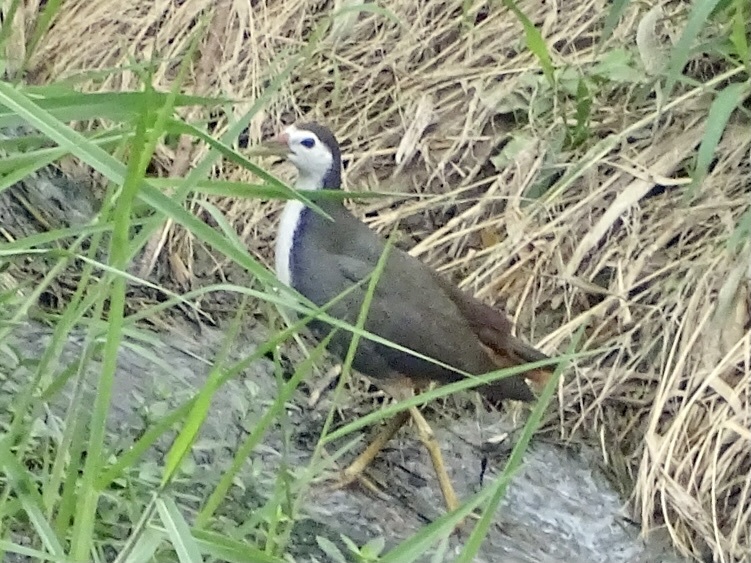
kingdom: Animalia
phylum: Chordata
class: Aves
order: Gruiformes
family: Rallidae
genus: Amaurornis
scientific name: Amaurornis phoenicurus
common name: White-breasted waterhen
